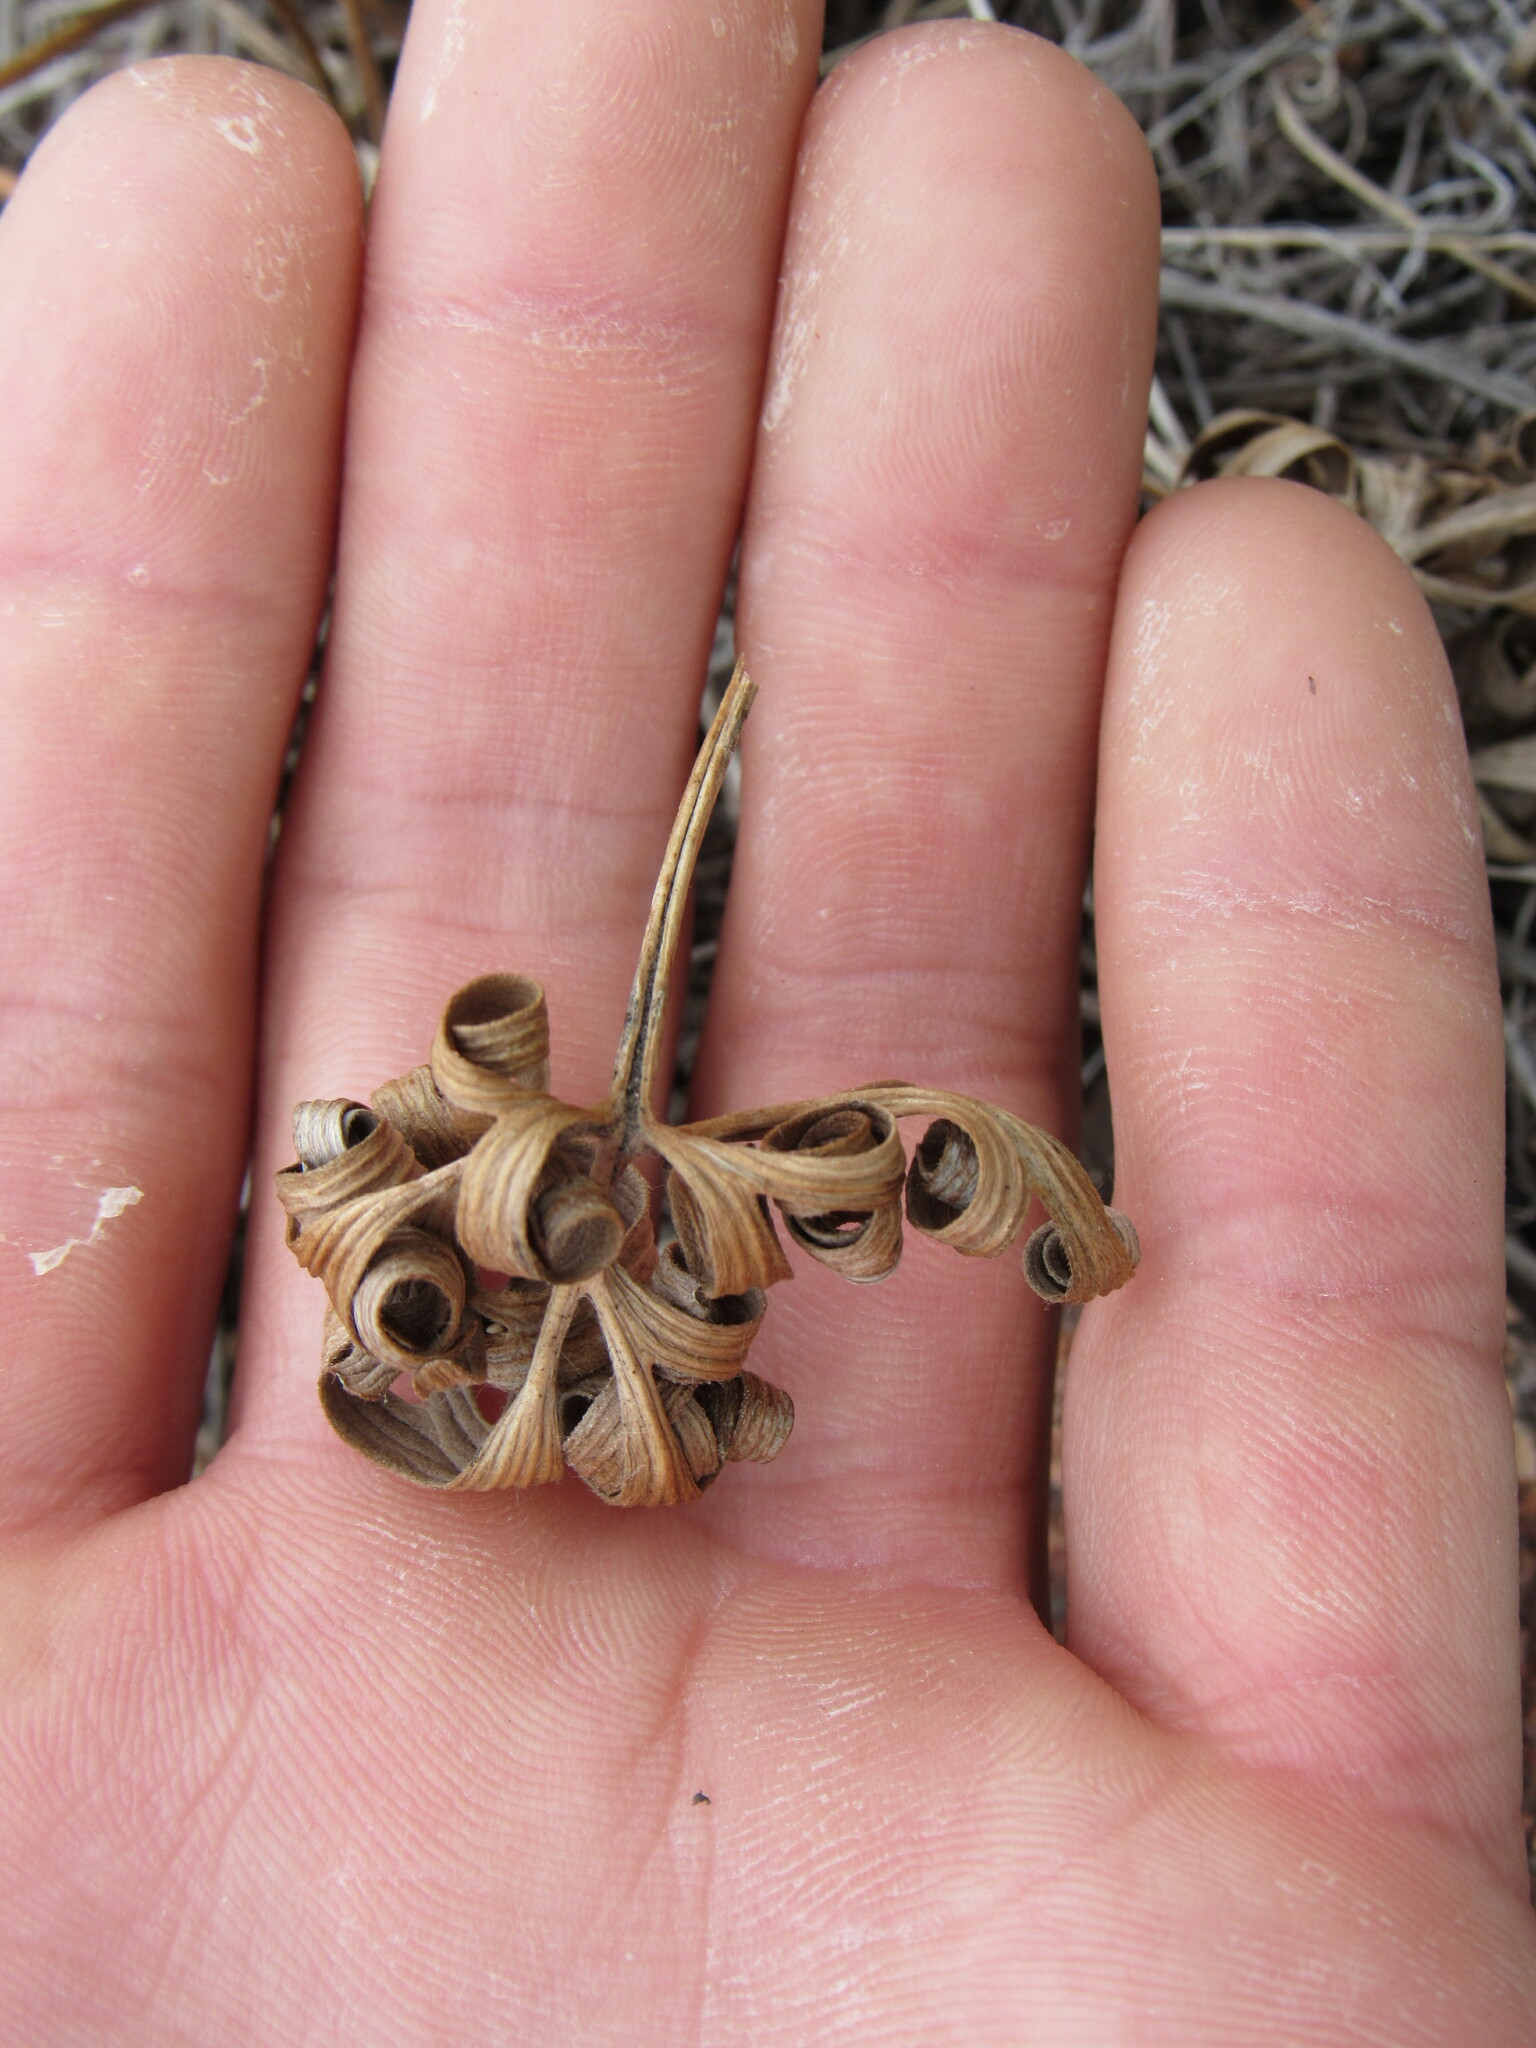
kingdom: Plantae
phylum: Tracheophyta
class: Magnoliopsida
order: Ranunculales
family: Ranunculaceae
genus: Pulsatilla
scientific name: Pulsatilla nuttalliana
